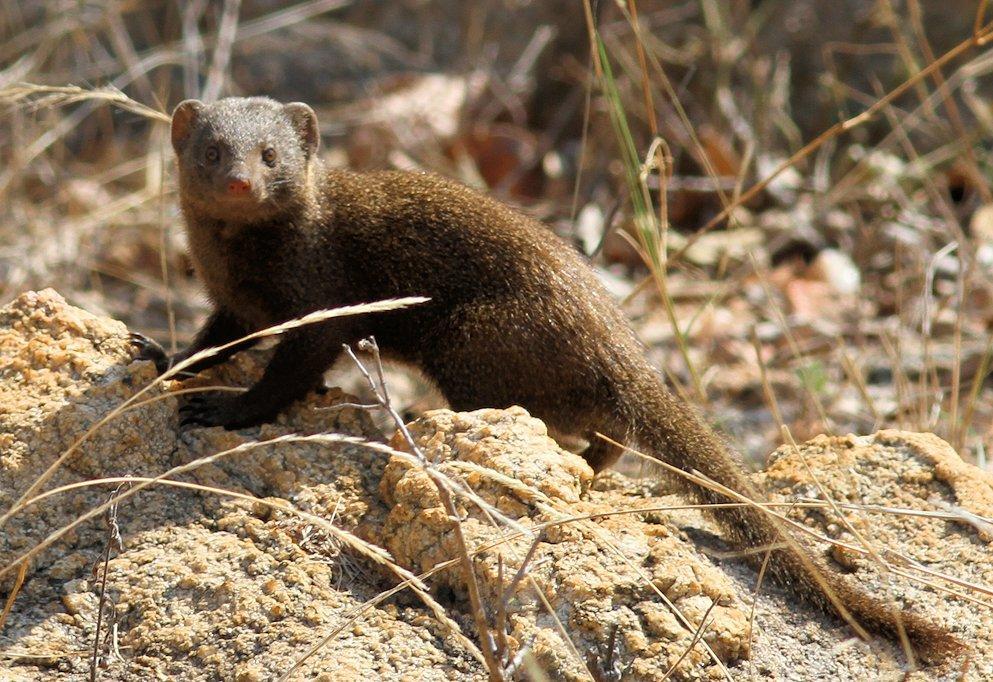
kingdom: Animalia
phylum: Chordata
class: Mammalia
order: Carnivora
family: Herpestidae
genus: Helogale
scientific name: Helogale parvula
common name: Common dwarf mongoose
